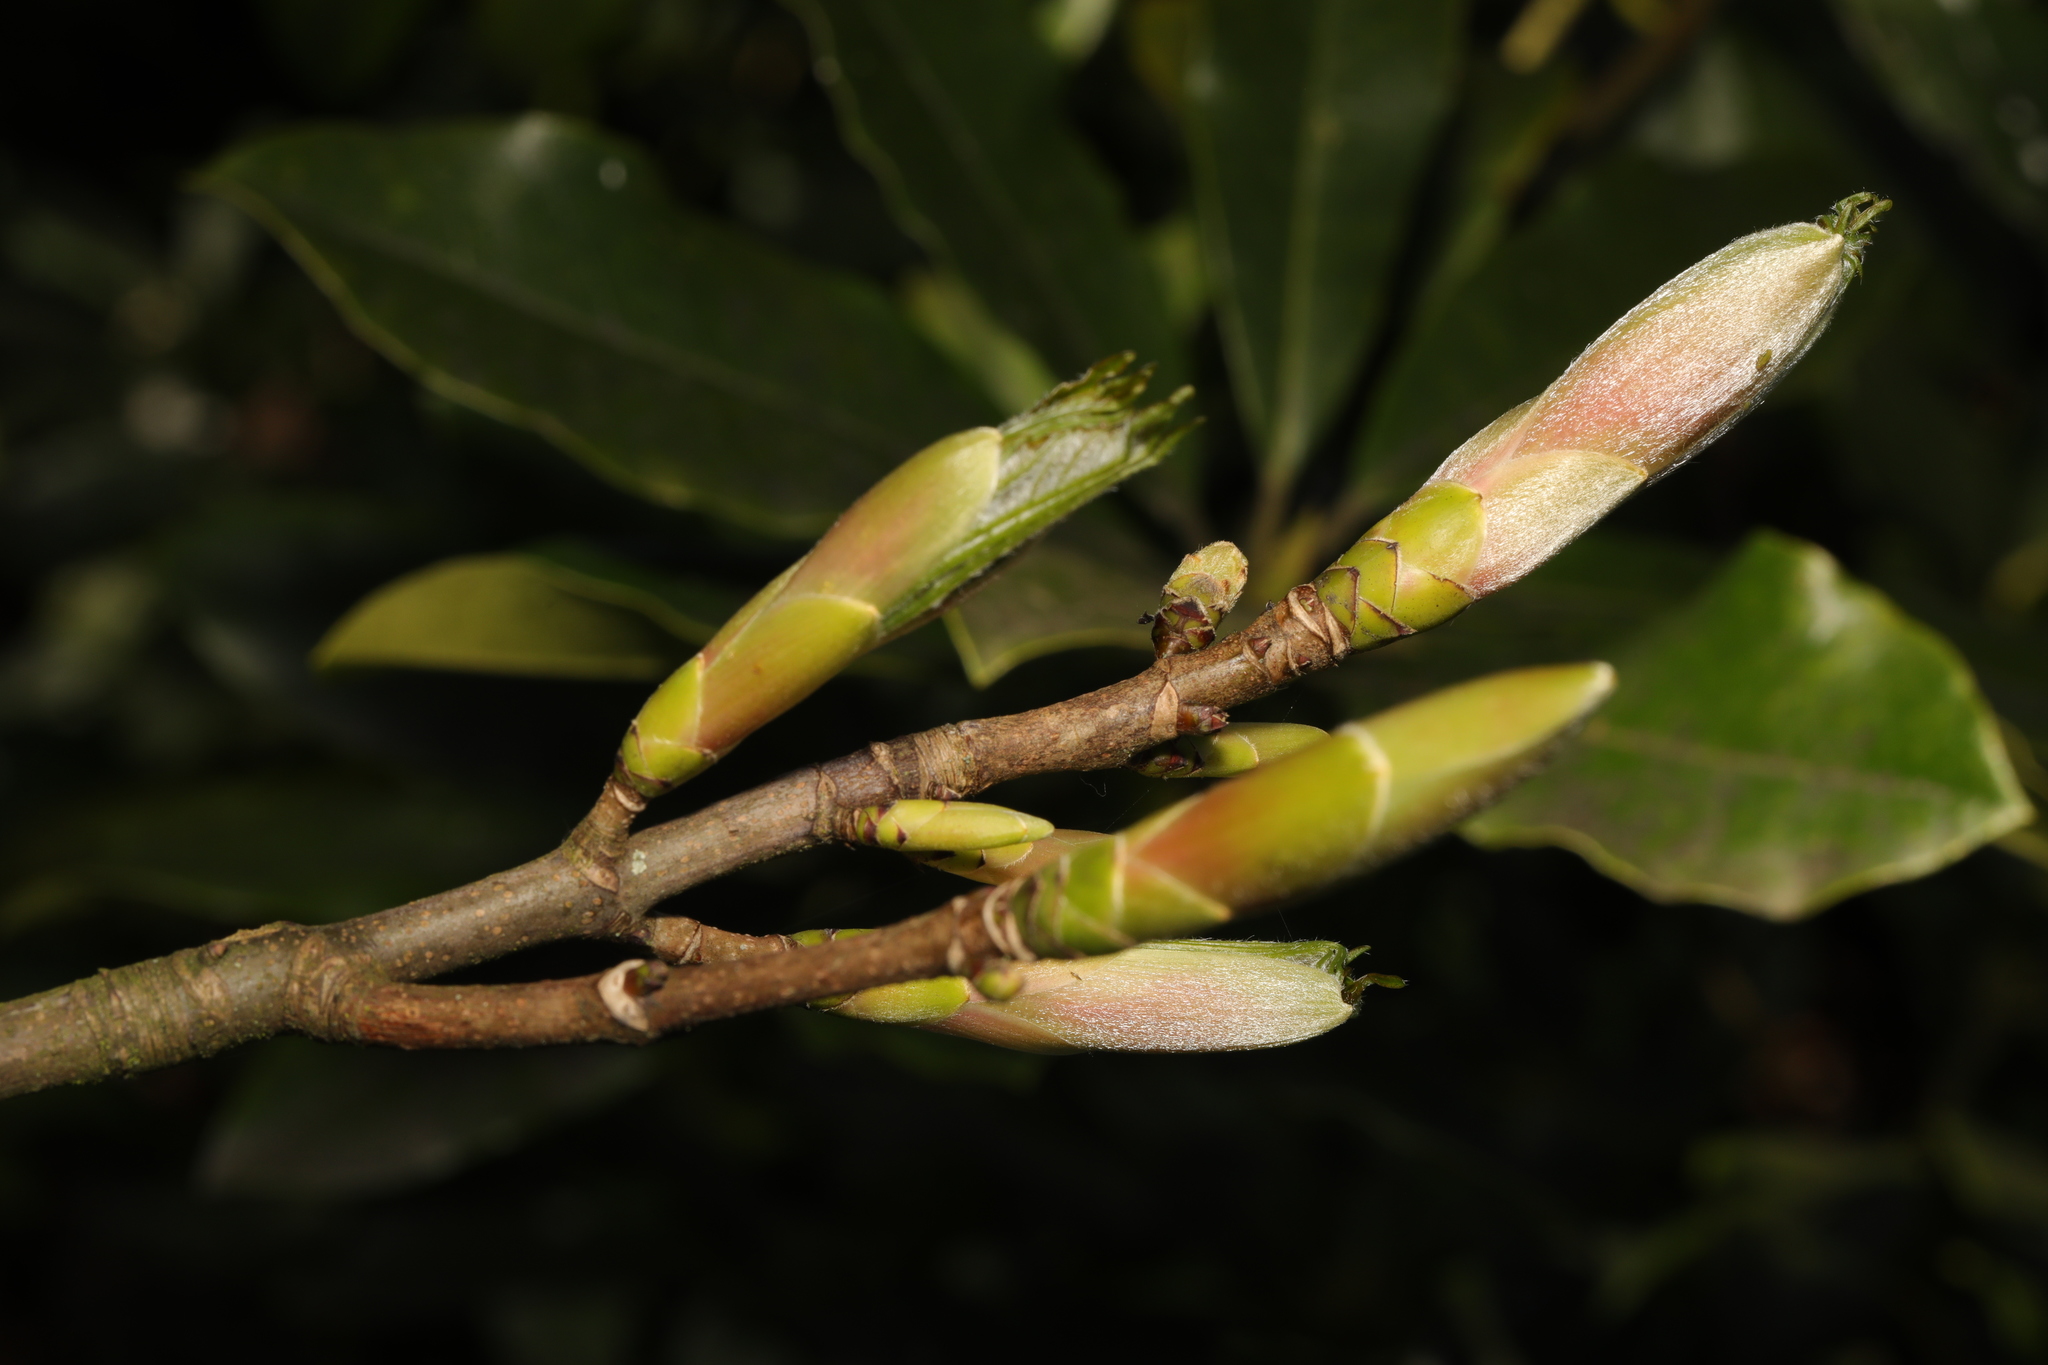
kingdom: Plantae
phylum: Tracheophyta
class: Magnoliopsida
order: Sapindales
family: Sapindaceae
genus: Acer
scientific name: Acer pseudoplatanus
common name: Sycamore
